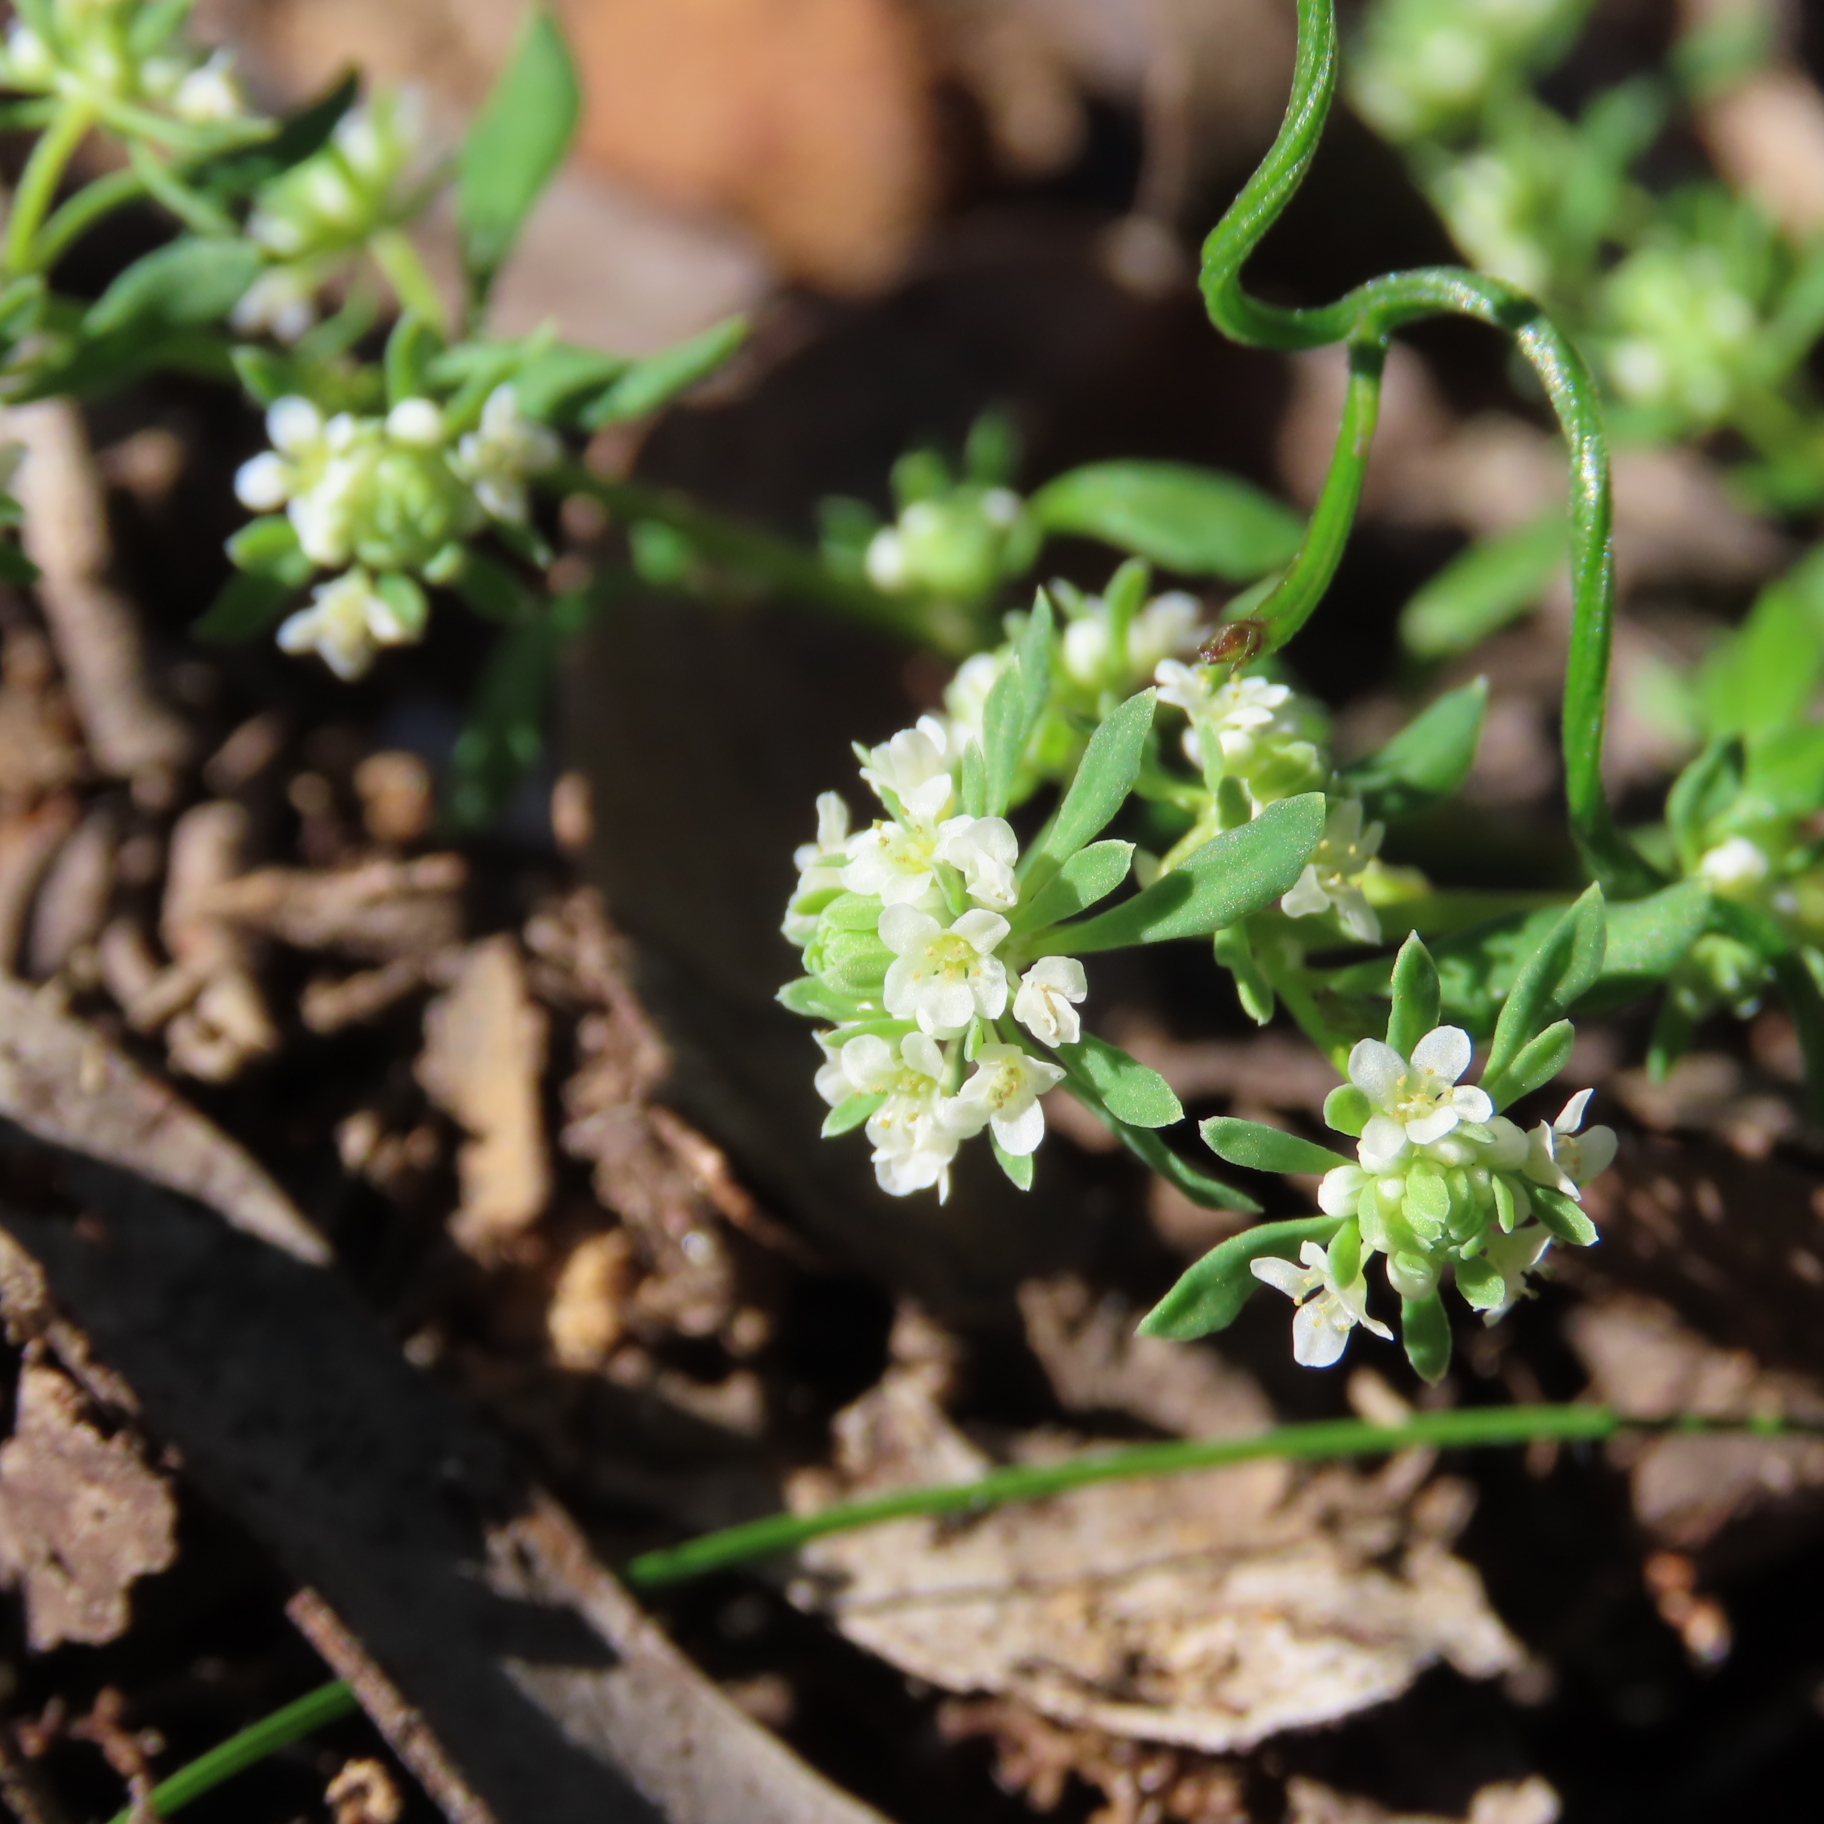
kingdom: Plantae
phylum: Tracheophyta
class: Magnoliopsida
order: Malpighiales
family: Phyllanthaceae
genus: Poranthera
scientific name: Poranthera microphylla
